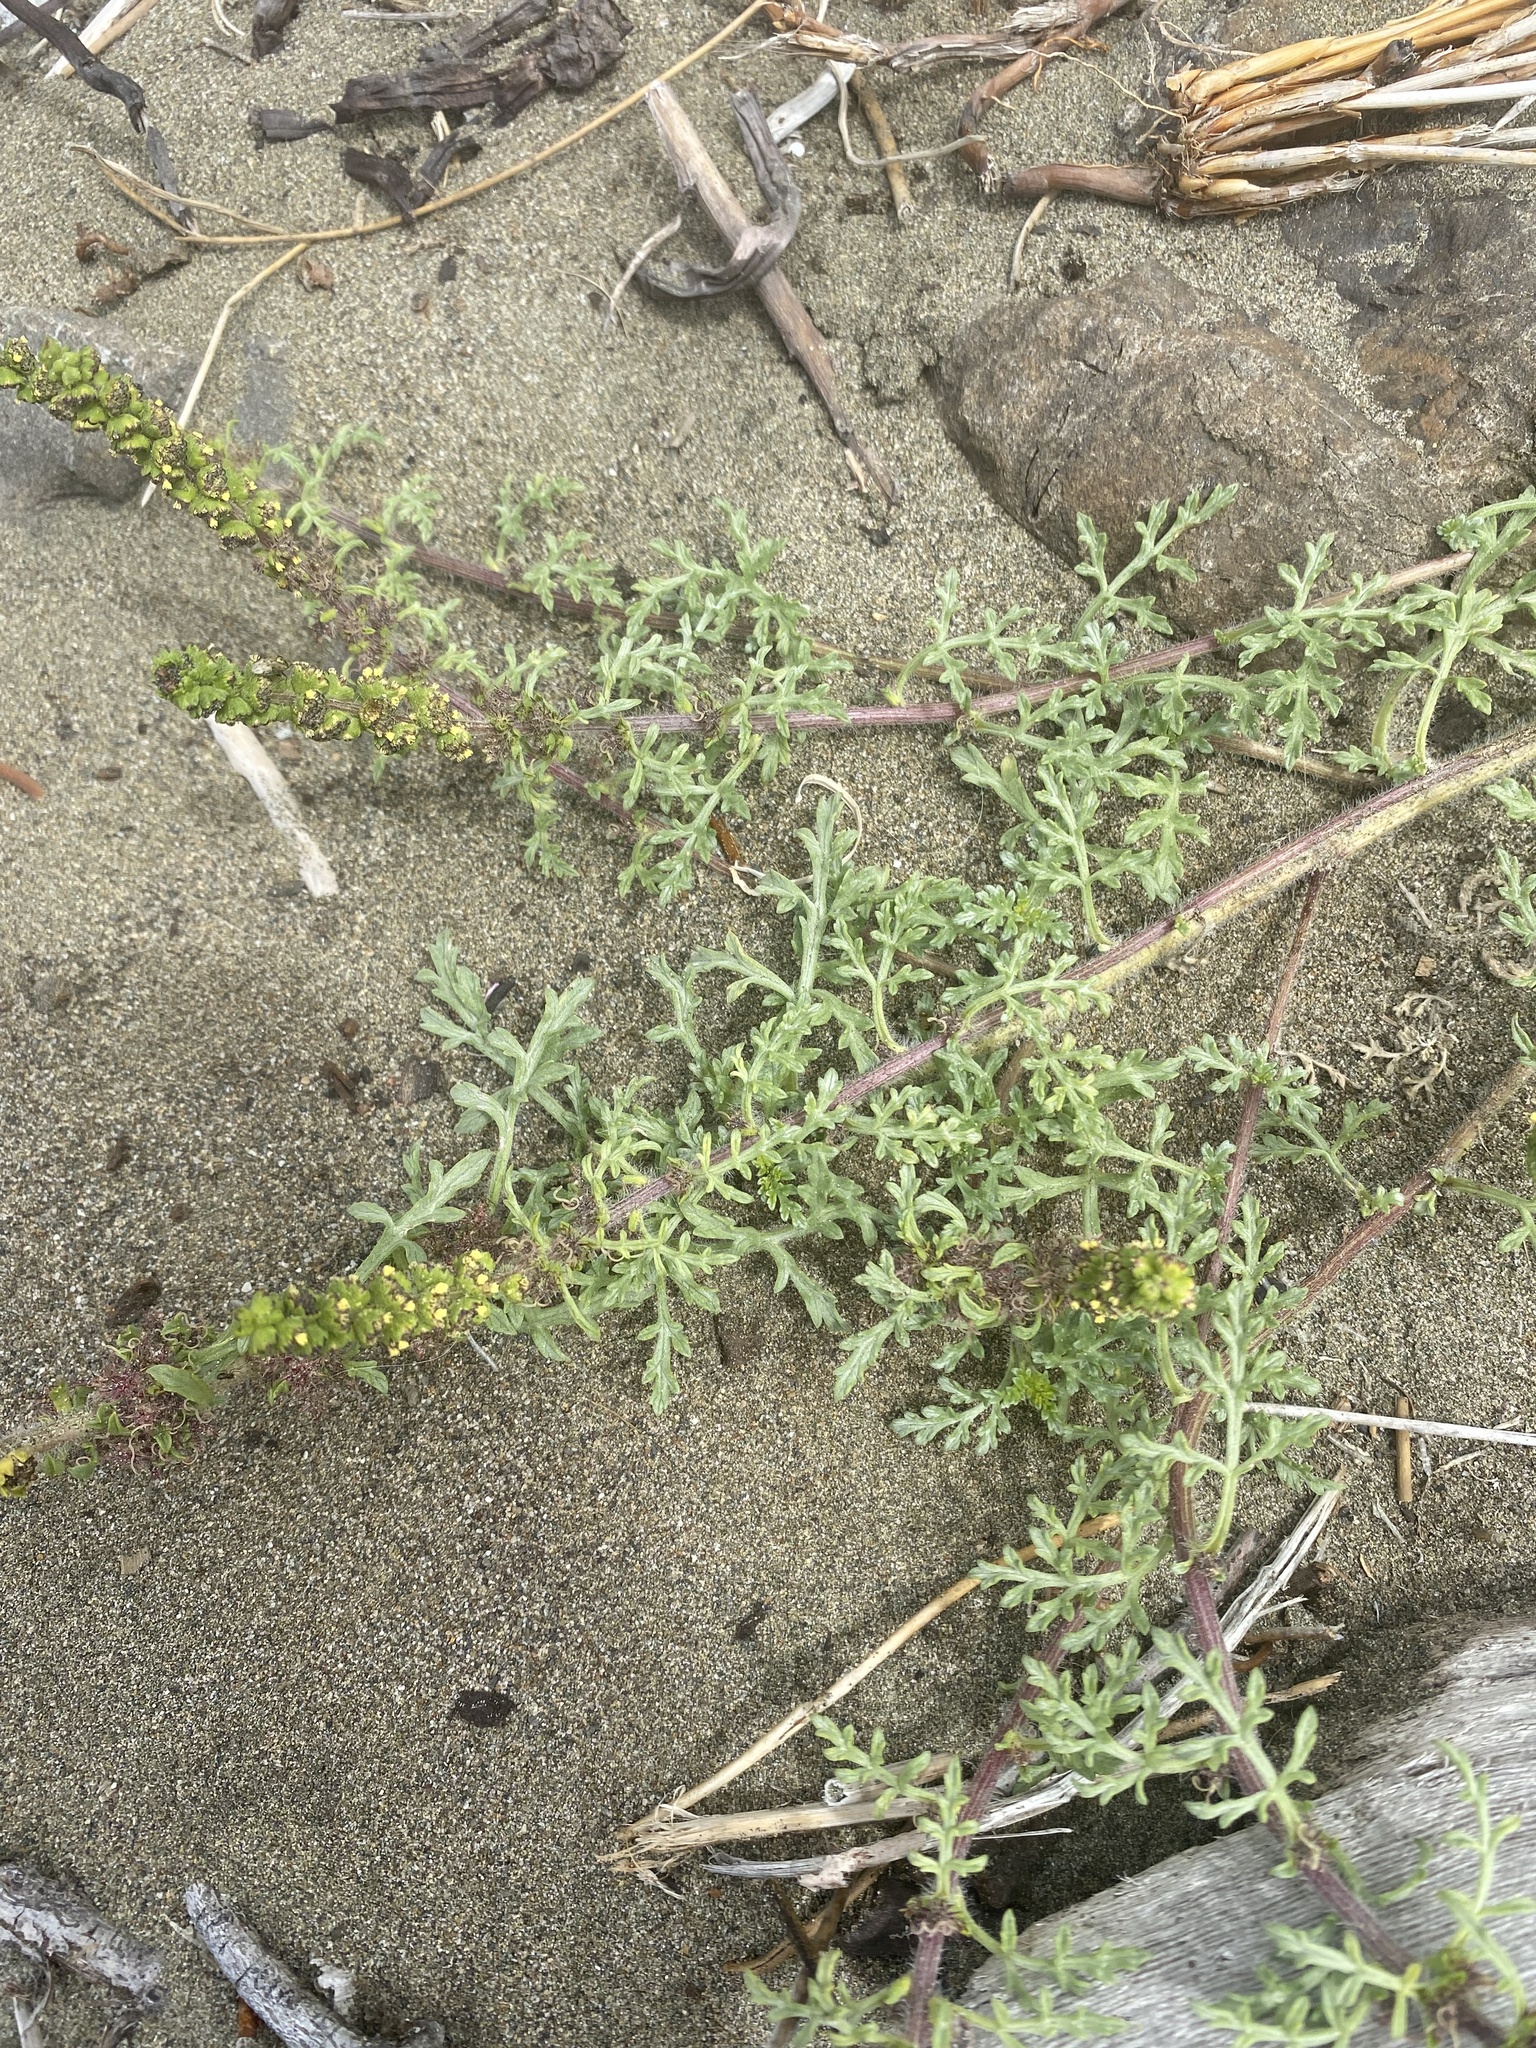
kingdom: Plantae
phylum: Tracheophyta
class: Magnoliopsida
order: Asterales
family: Asteraceae
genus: Ambrosia
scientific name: Ambrosia chamissonis
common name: Beachbur
